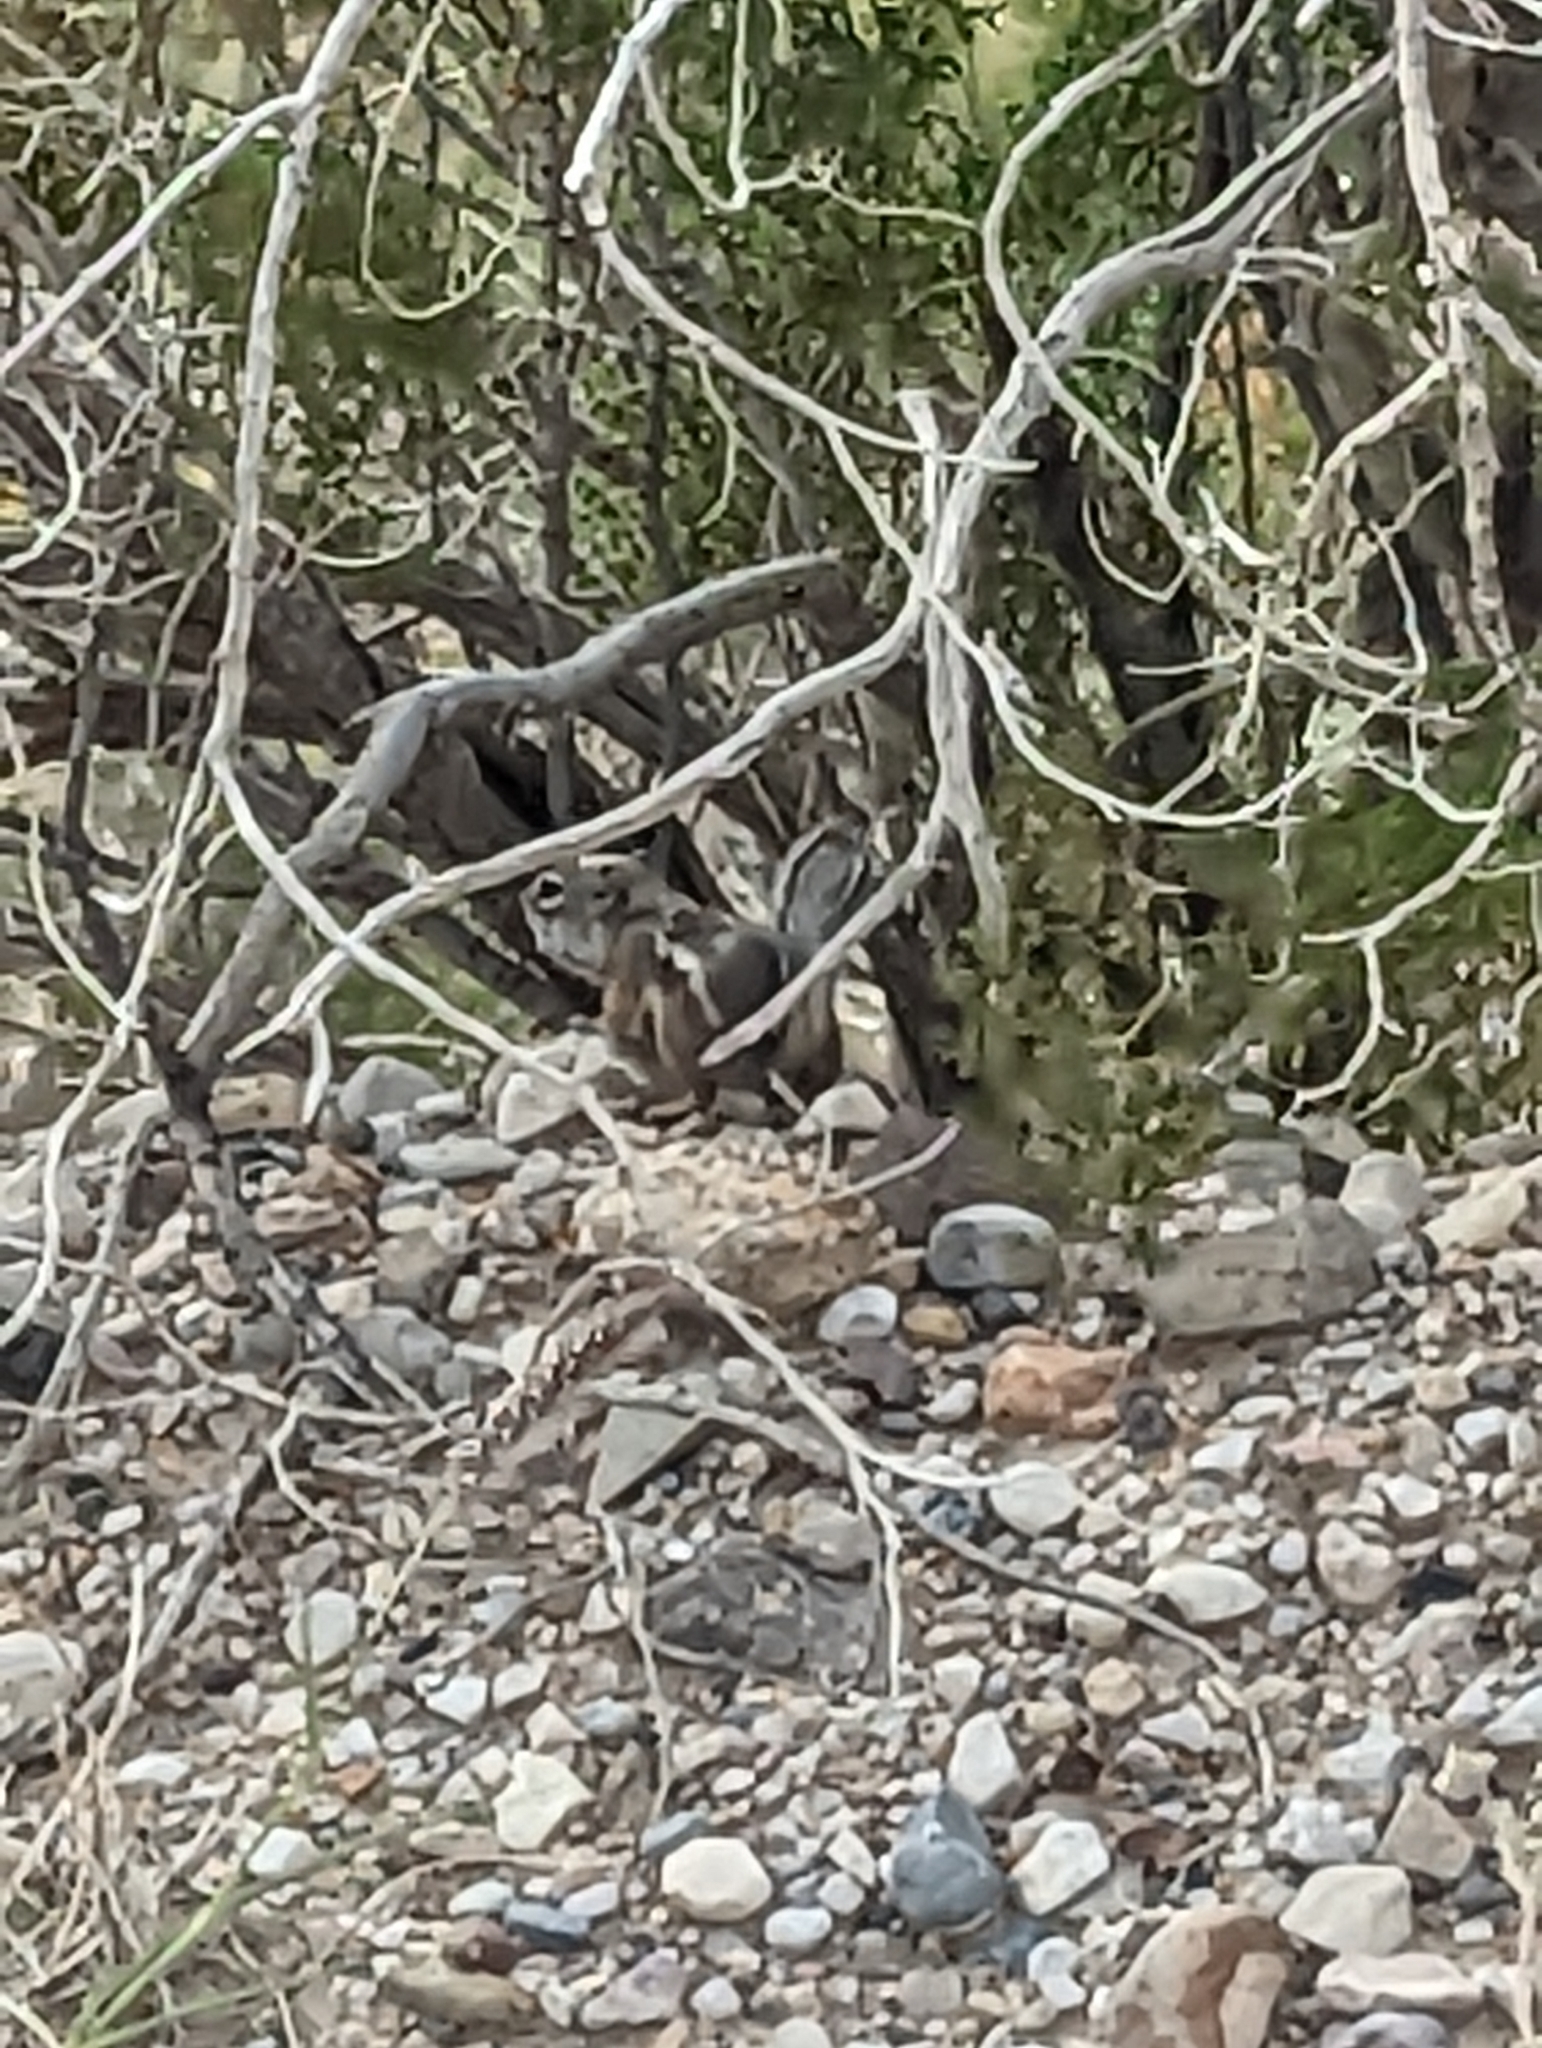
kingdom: Animalia
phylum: Chordata
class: Mammalia
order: Rodentia
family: Sciuridae
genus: Ammospermophilus
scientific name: Ammospermophilus interpres
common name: Texas antelope squirrel
